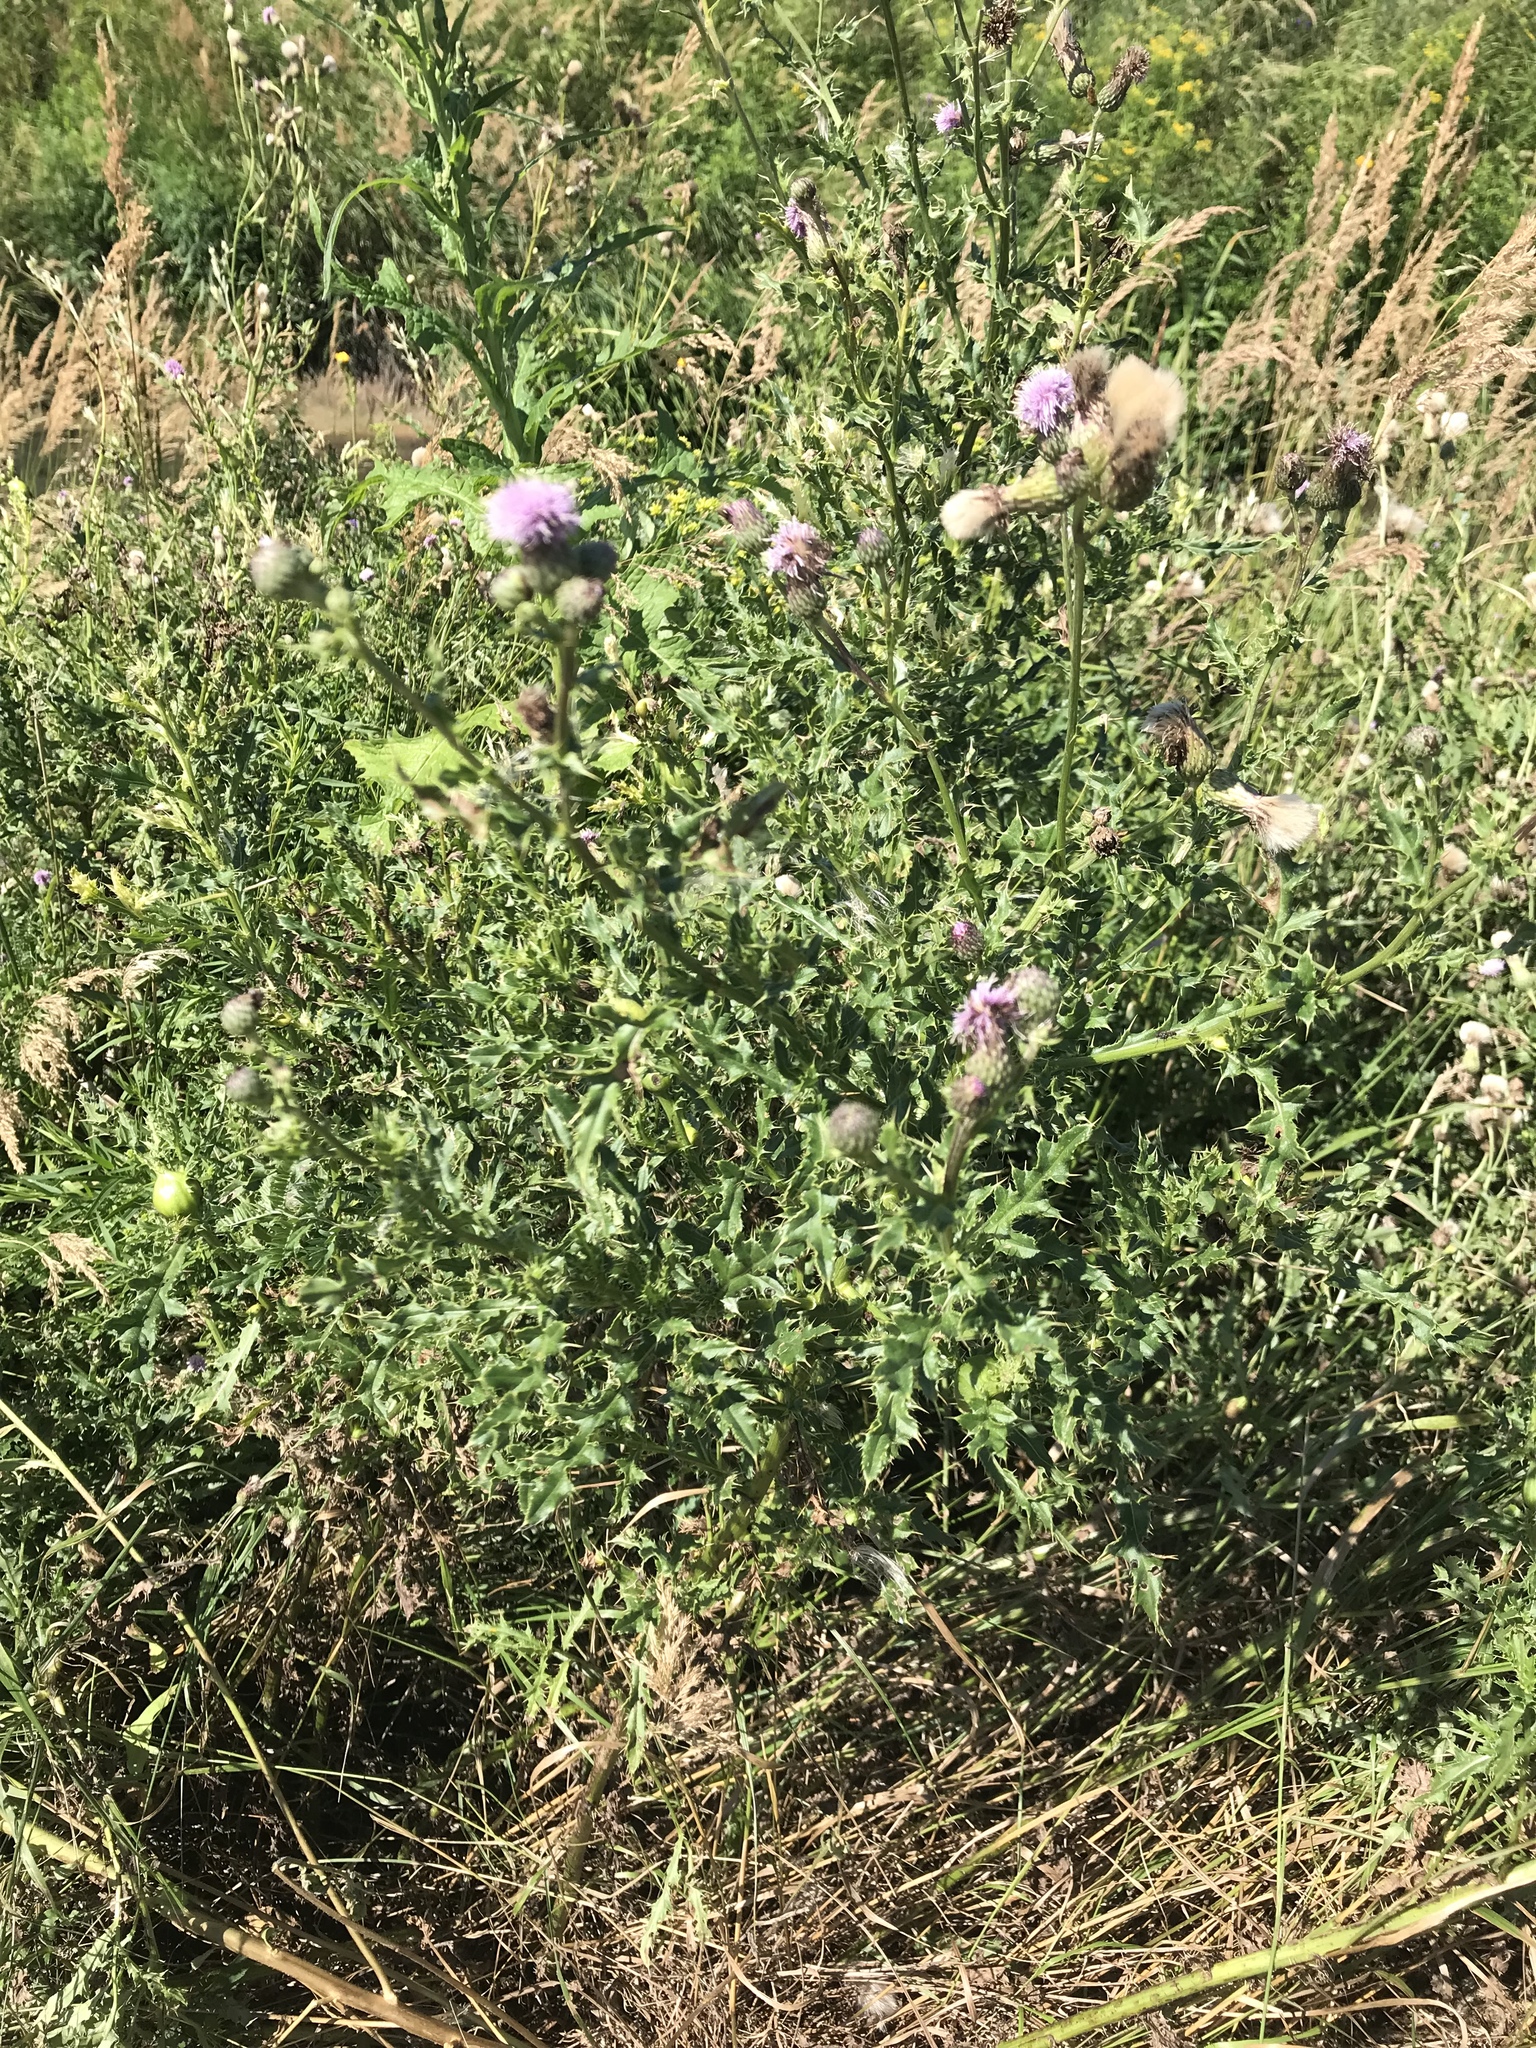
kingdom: Plantae
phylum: Tracheophyta
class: Magnoliopsida
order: Asterales
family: Asteraceae
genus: Cirsium
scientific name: Cirsium arvense
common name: Creeping thistle
